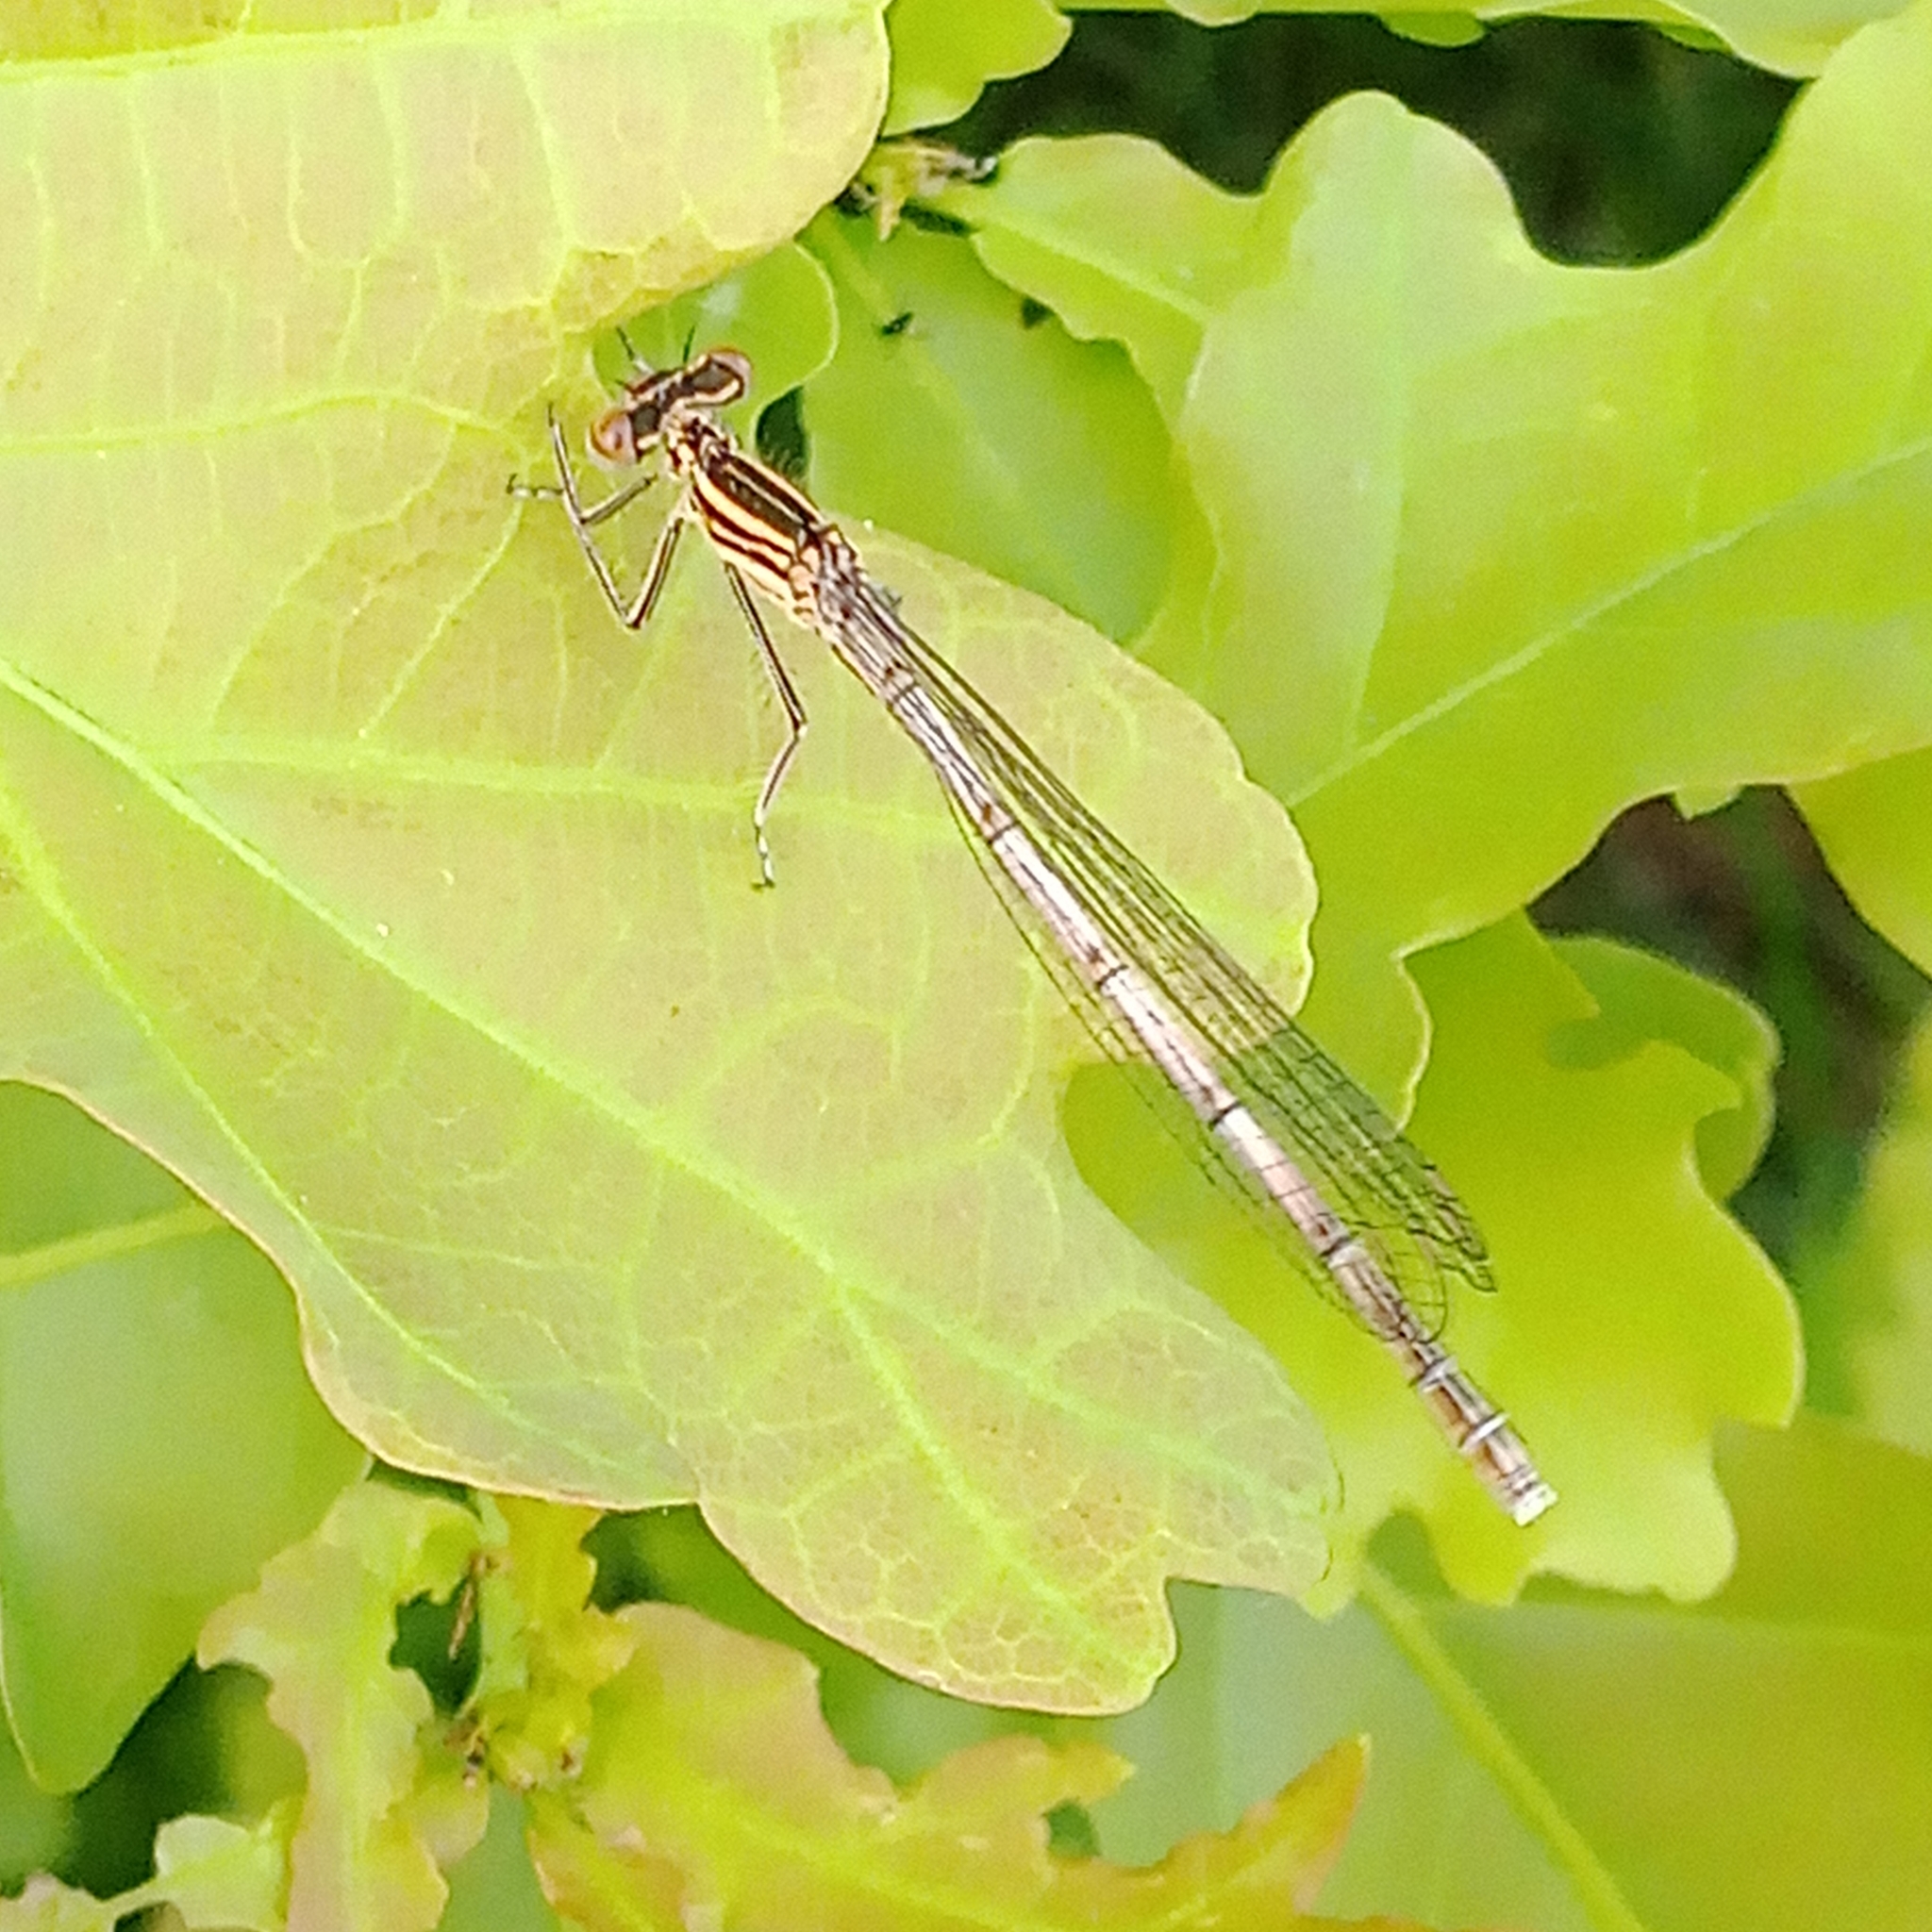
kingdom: Animalia
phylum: Arthropoda
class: Insecta
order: Odonata
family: Platycnemididae
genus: Platycnemis
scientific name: Platycnemis pennipes
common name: White-legged damselfly
